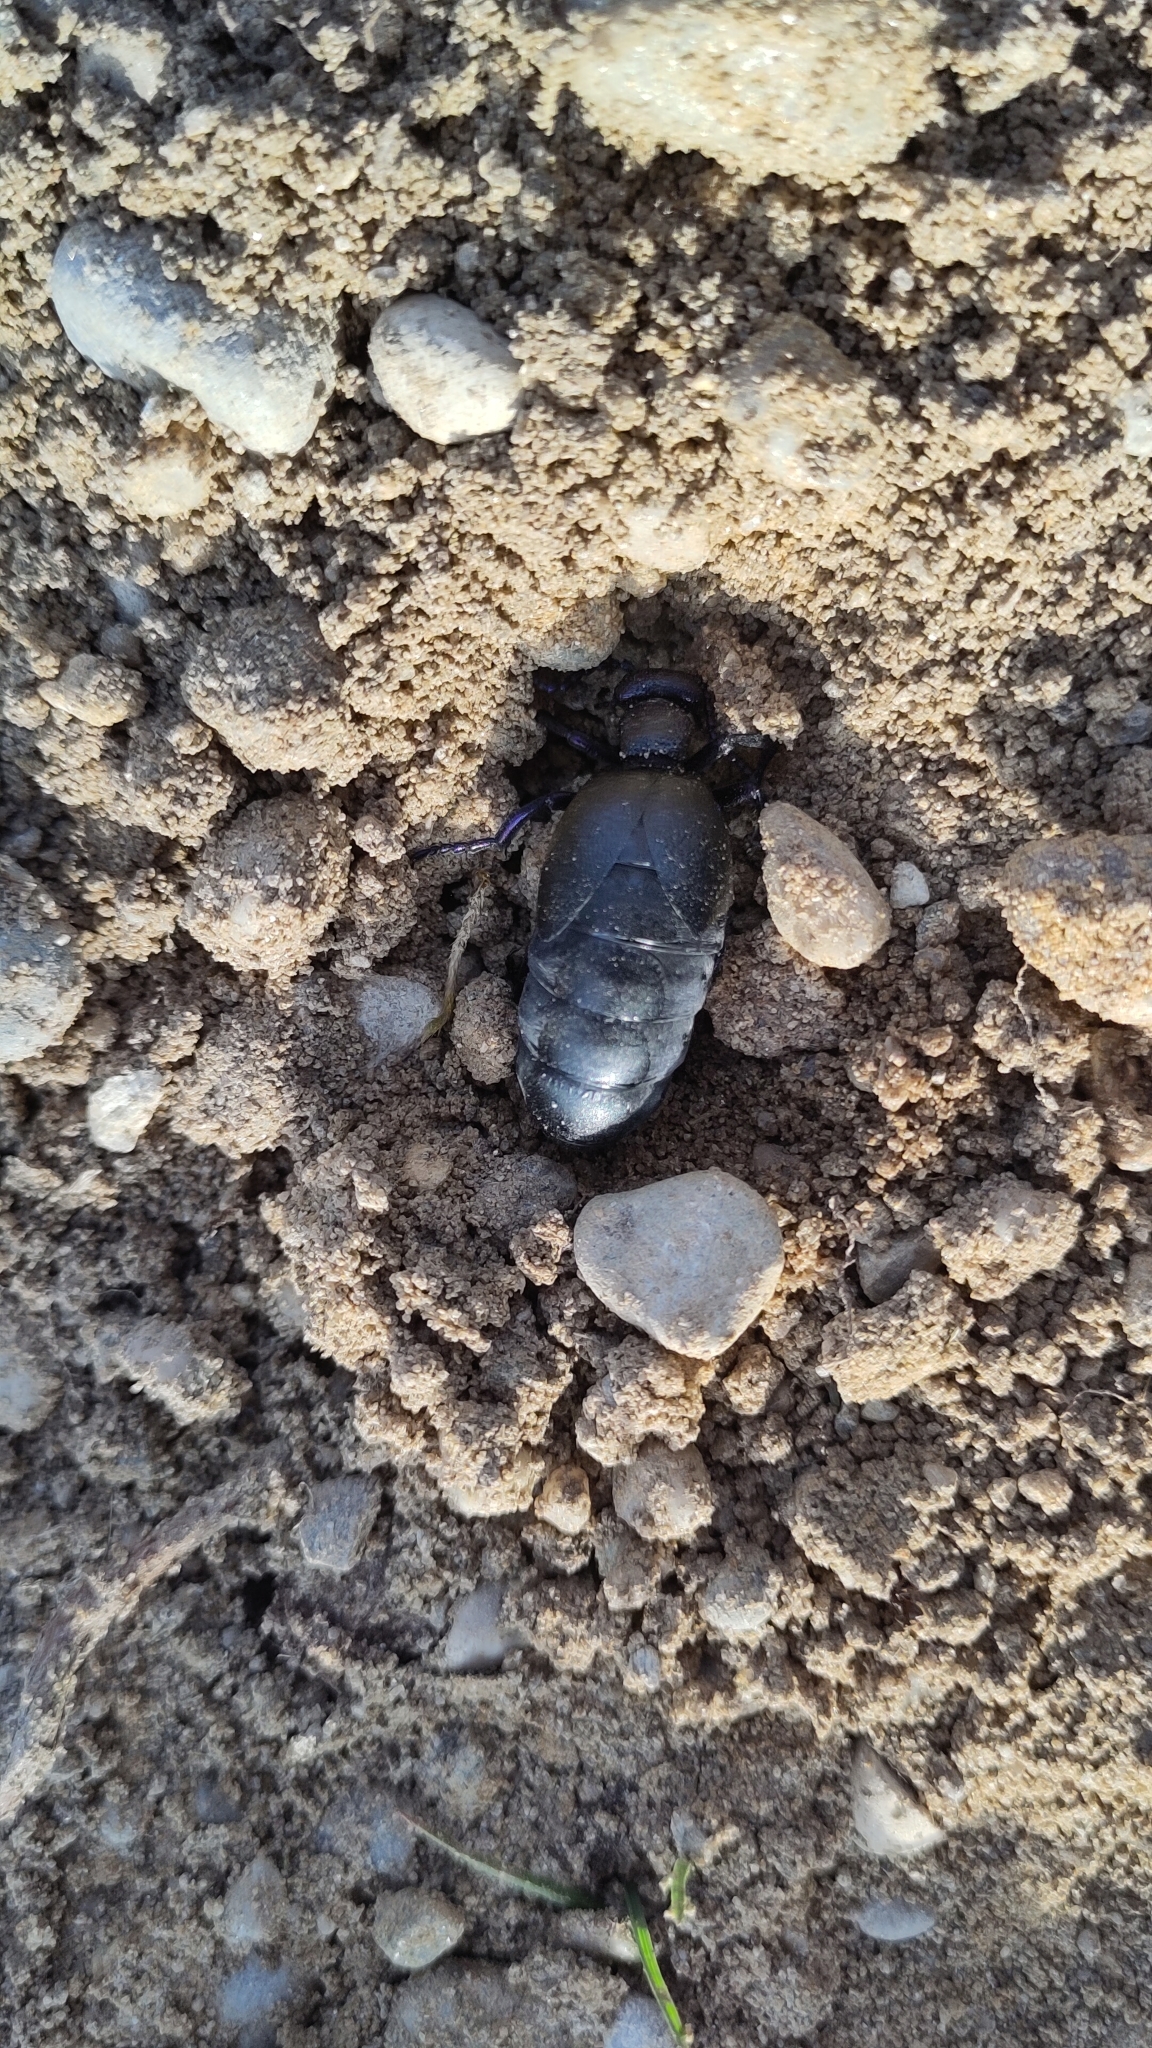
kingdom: Animalia
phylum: Arthropoda
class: Insecta
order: Coleoptera
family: Meloidae
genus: Meloe
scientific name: Meloe proscarabaeus
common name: Black oil-beetle
